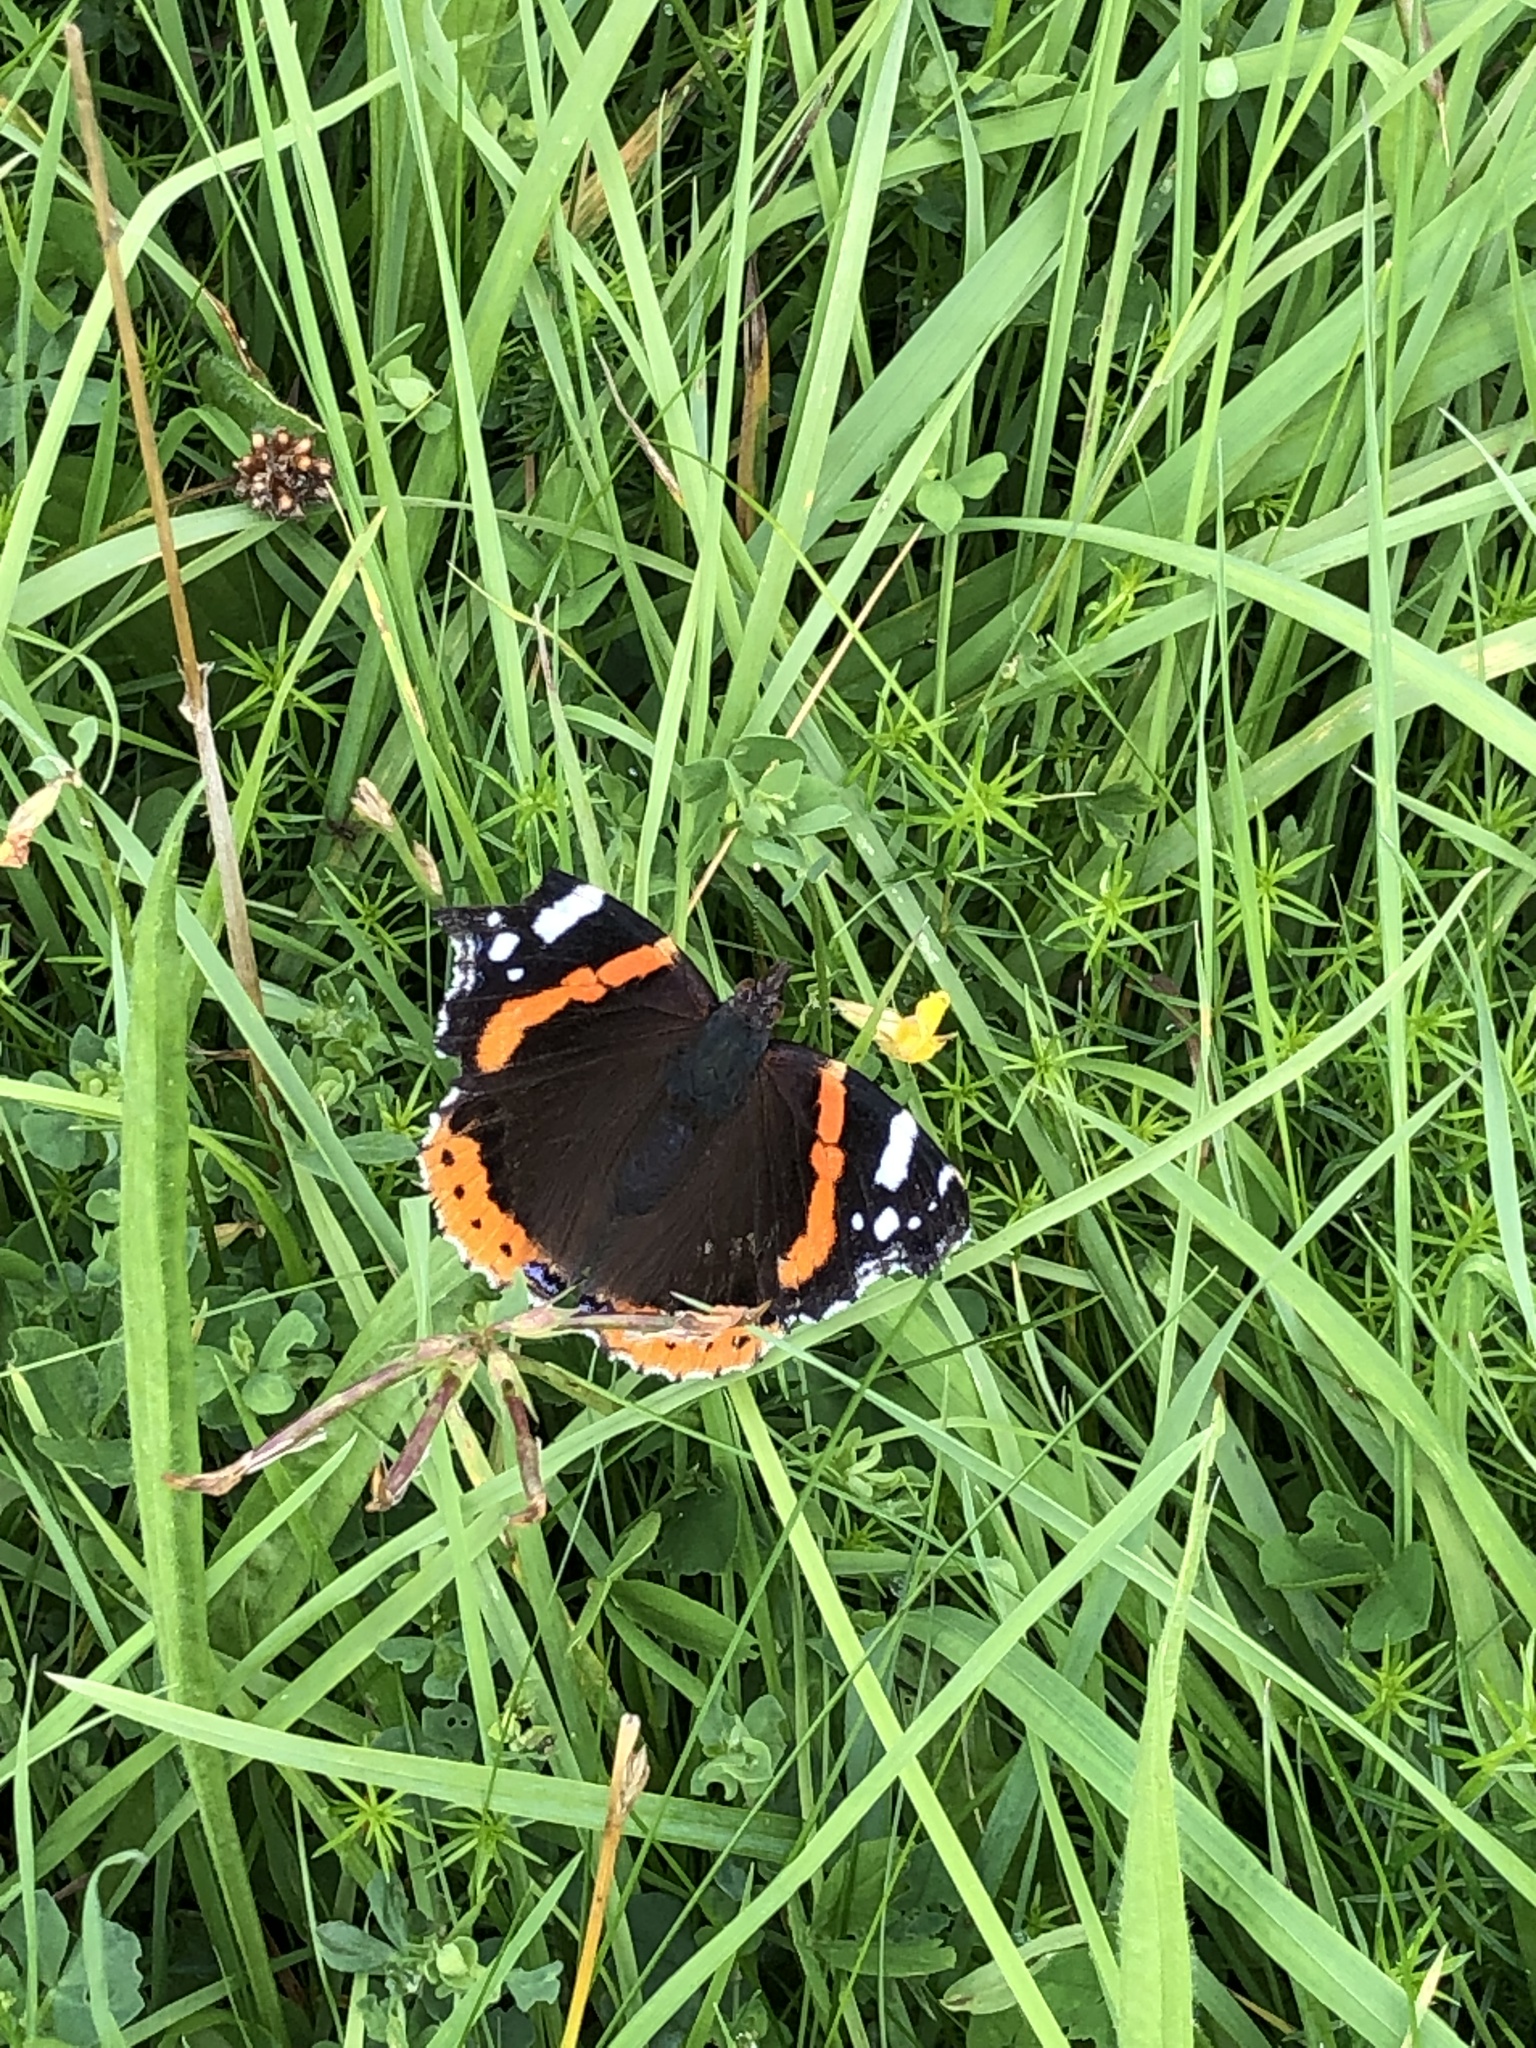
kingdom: Animalia
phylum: Arthropoda
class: Insecta
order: Lepidoptera
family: Nymphalidae
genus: Vanessa
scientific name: Vanessa atalanta
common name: Red admiral
